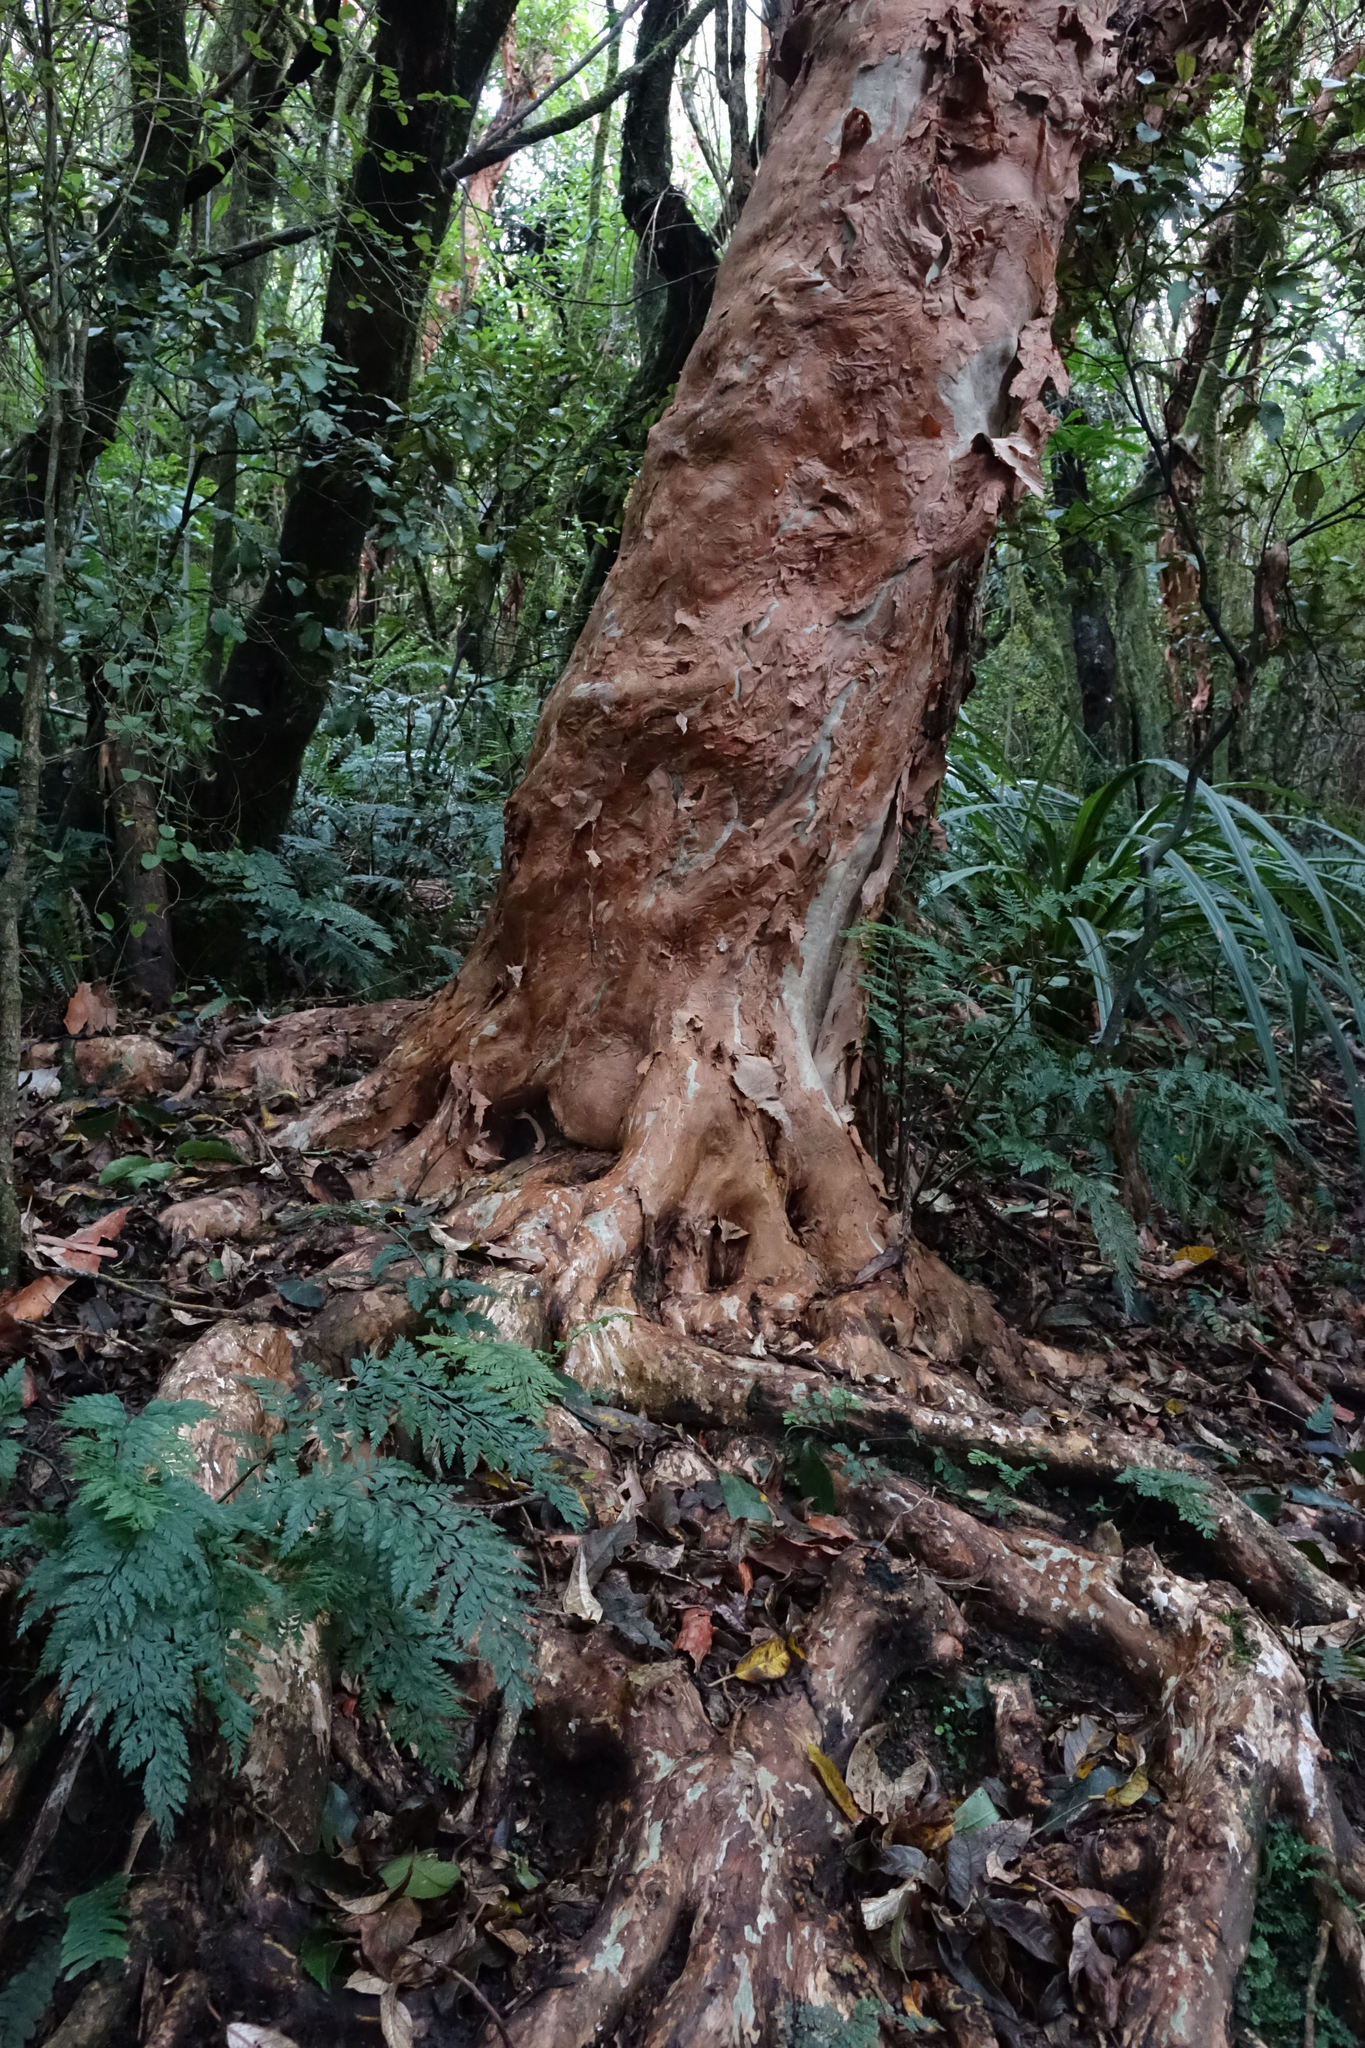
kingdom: Plantae
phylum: Tracheophyta
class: Magnoliopsida
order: Myrtales
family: Onagraceae
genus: Fuchsia
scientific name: Fuchsia excorticata
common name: Tree fuchsia
